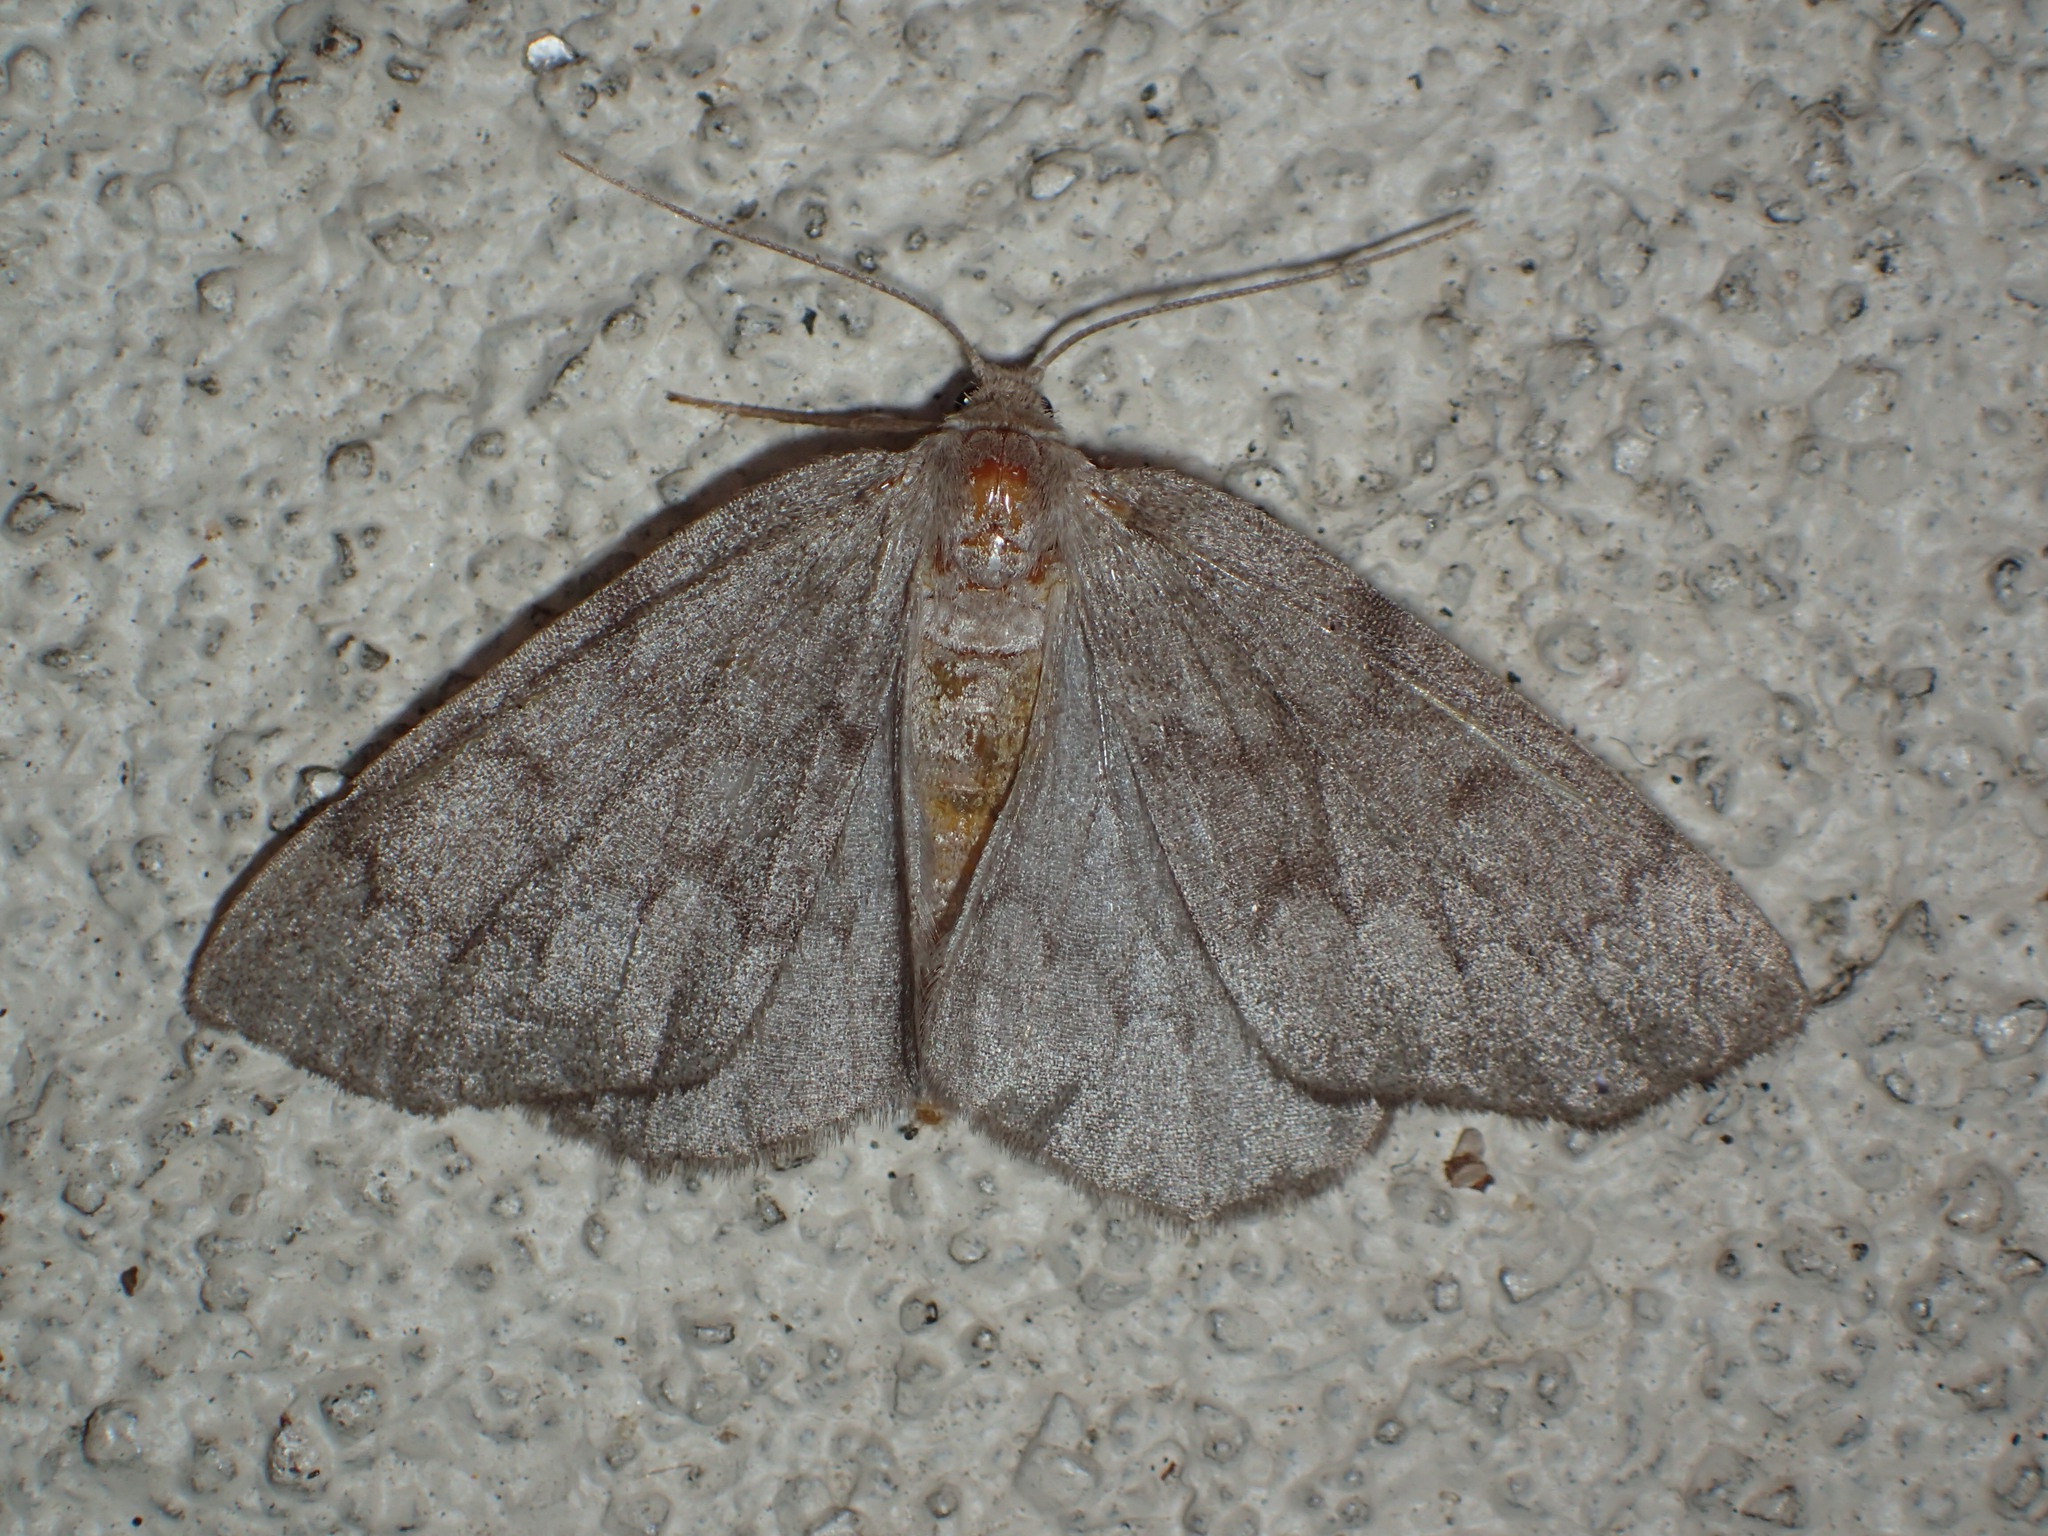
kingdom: Animalia
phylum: Arthropoda
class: Insecta
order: Lepidoptera
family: Geometridae
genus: Nepytia
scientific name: Nepytia semiclusaria
